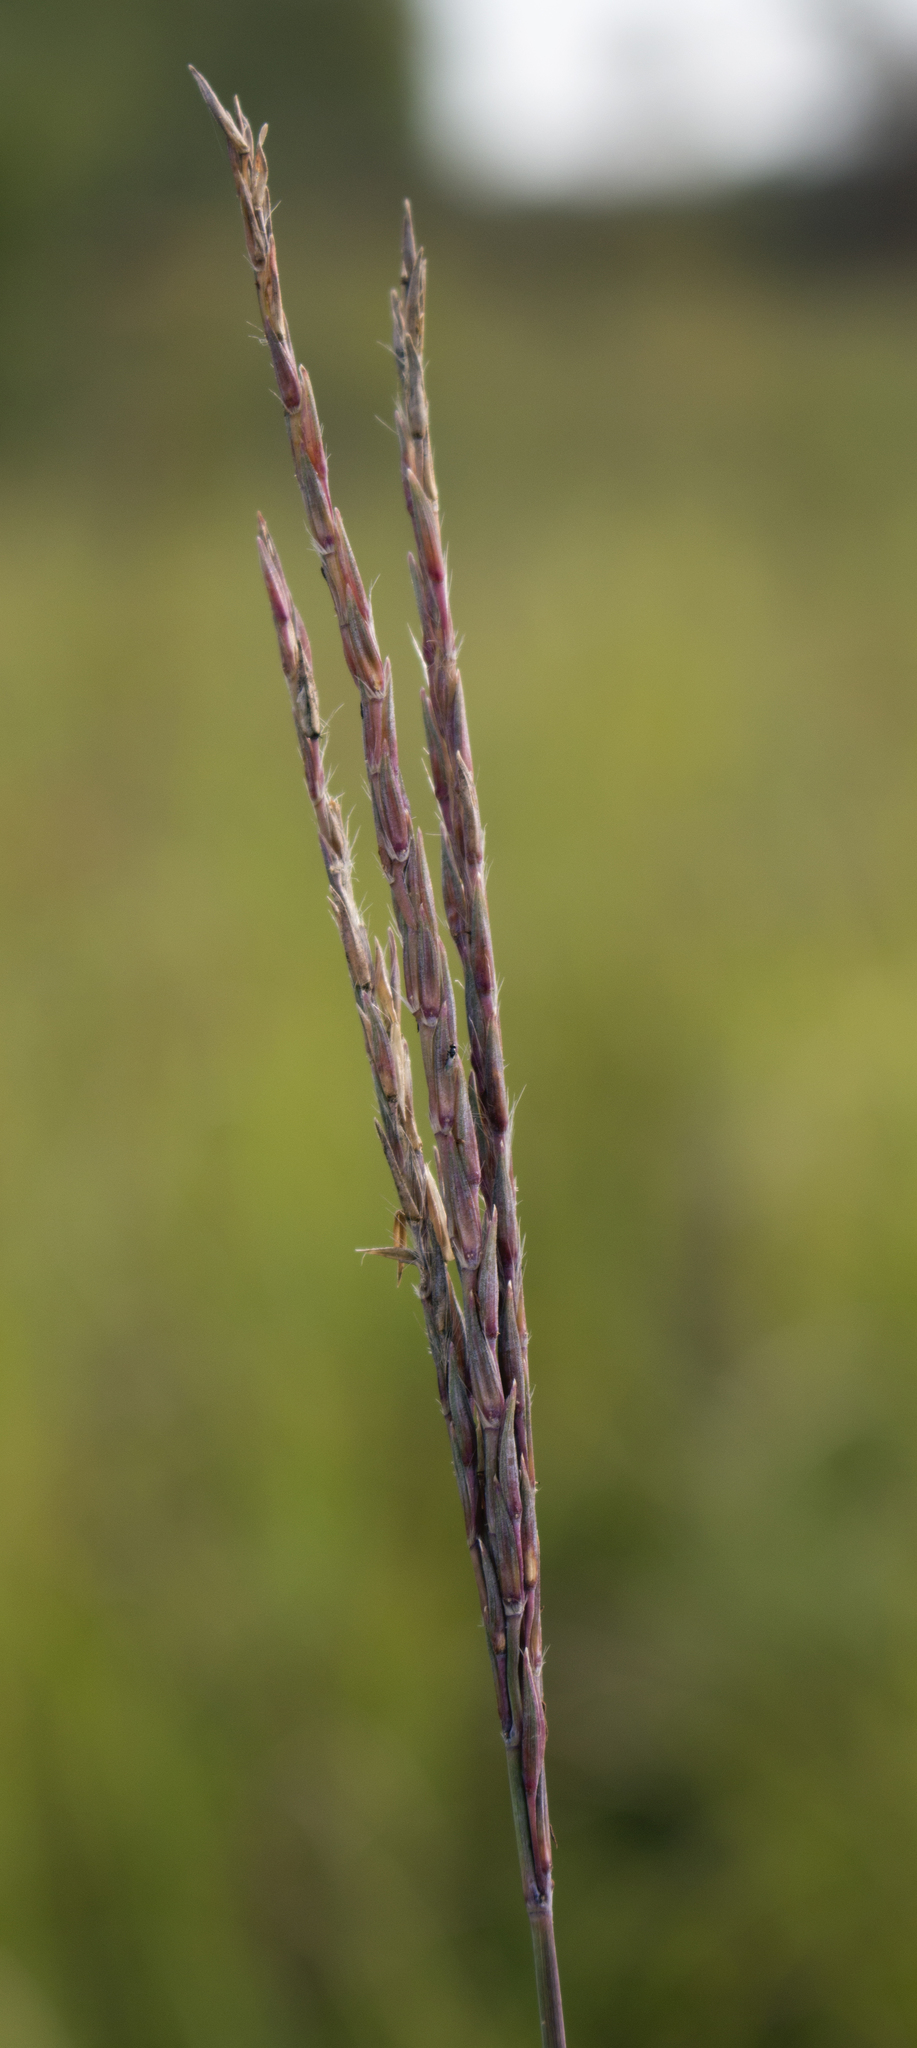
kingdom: Plantae
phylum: Tracheophyta
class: Liliopsida
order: Poales
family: Poaceae
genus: Andropogon
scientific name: Andropogon gerardi
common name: Big bluestem
